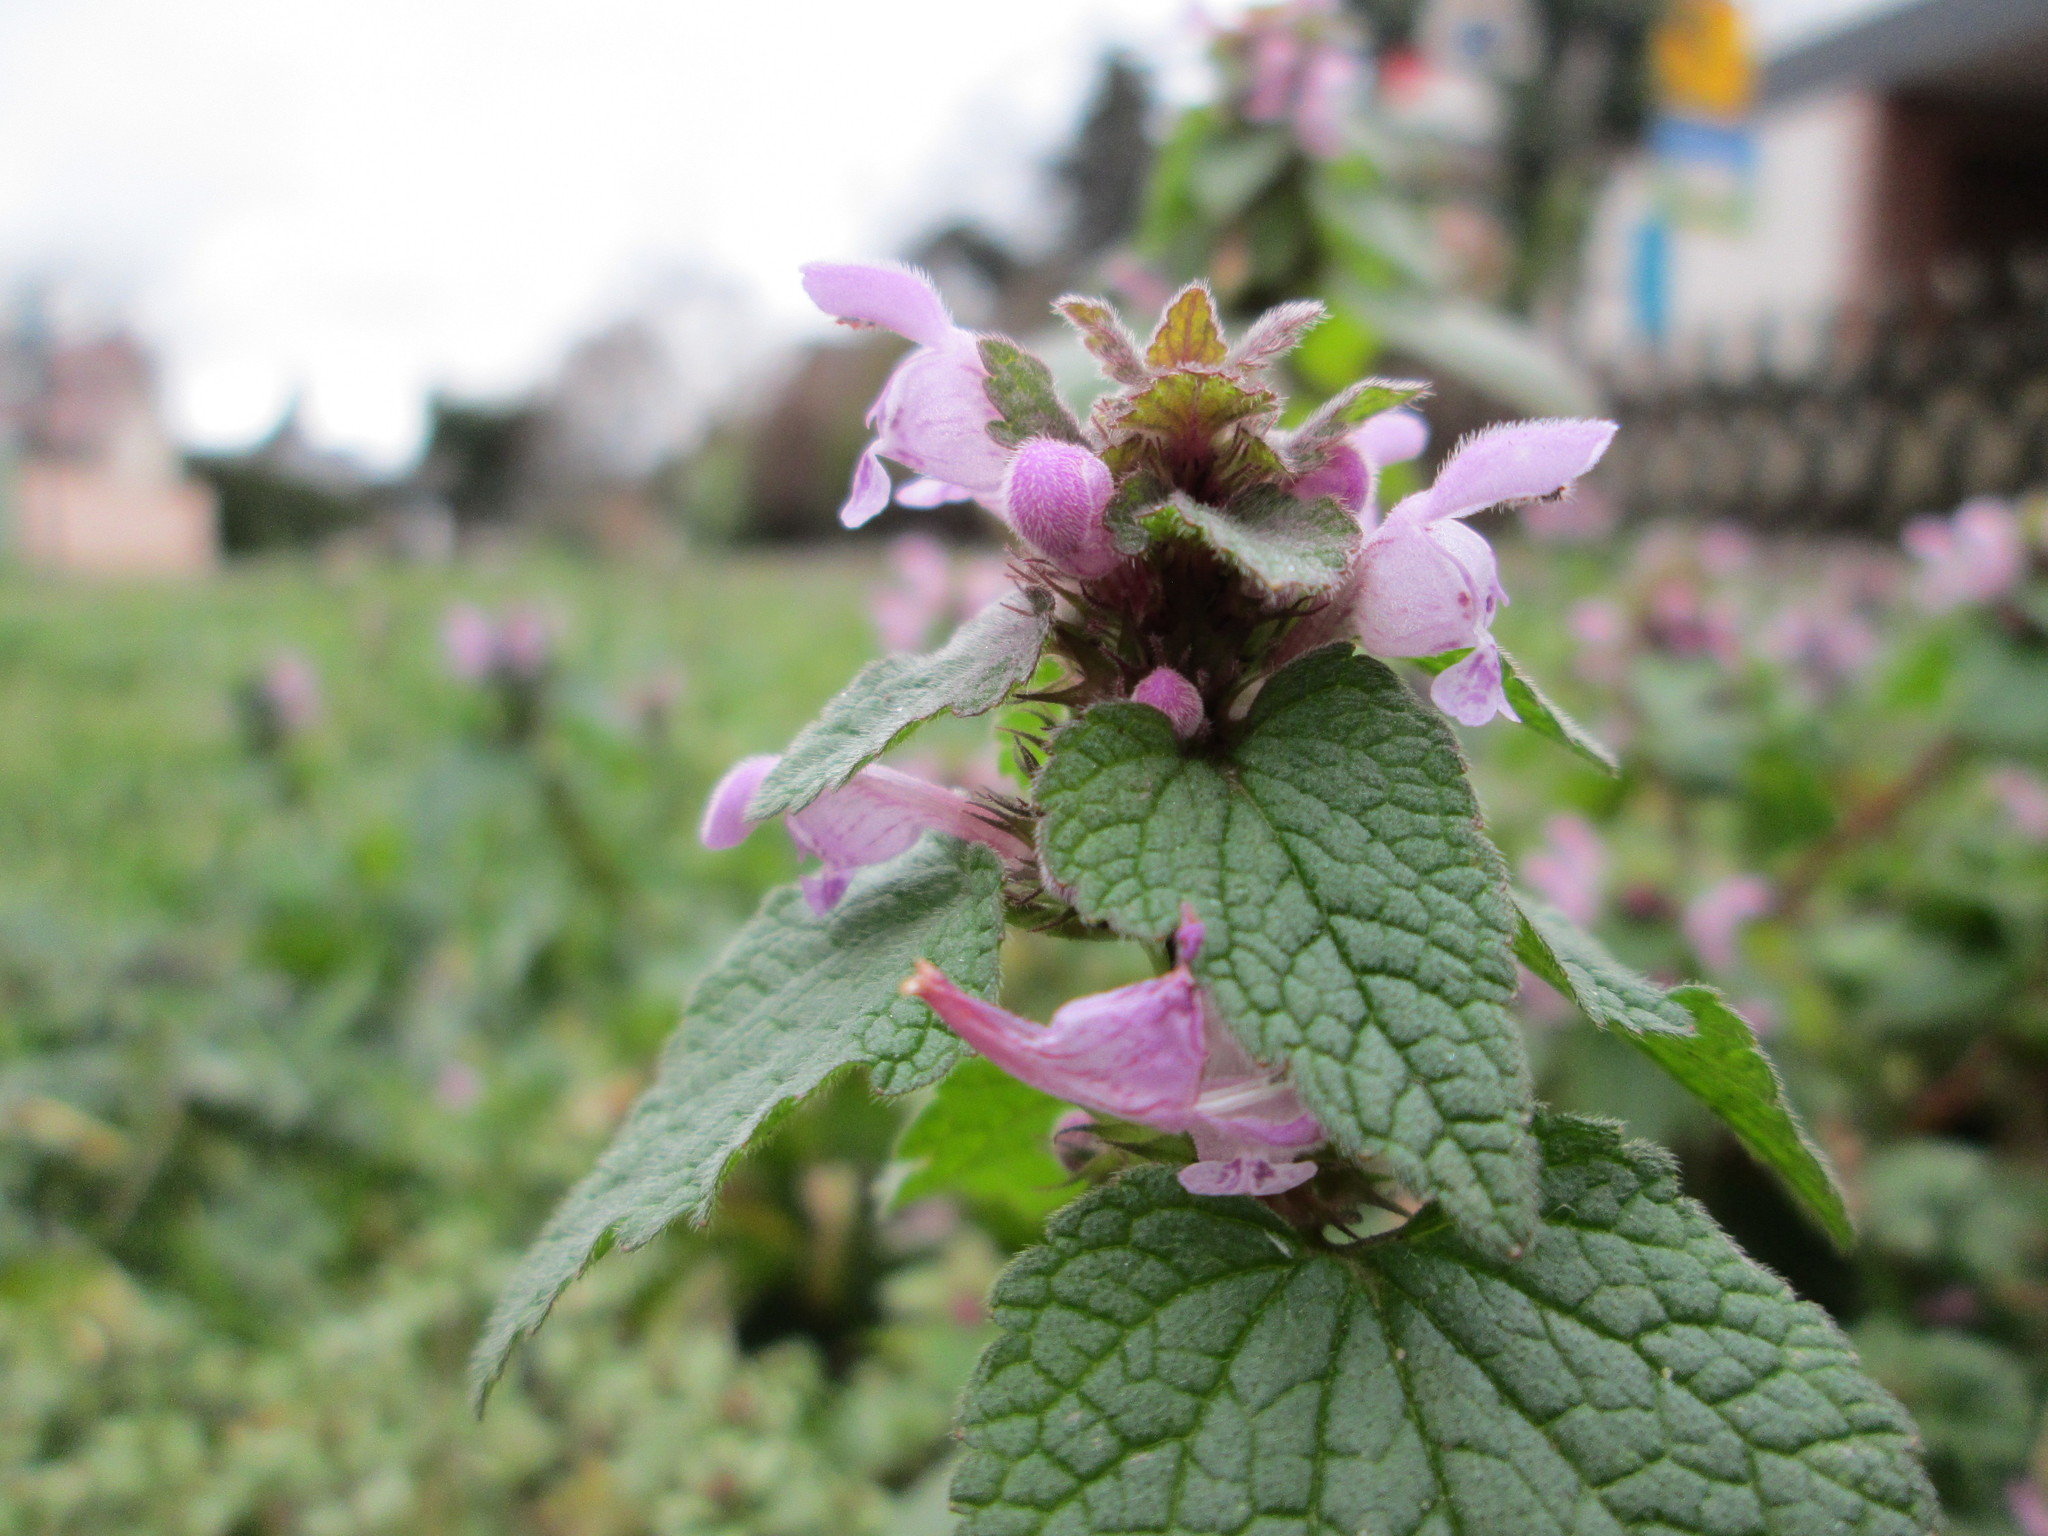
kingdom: Plantae
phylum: Tracheophyta
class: Magnoliopsida
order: Lamiales
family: Lamiaceae
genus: Lamium
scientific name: Lamium purpureum
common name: Red dead-nettle
